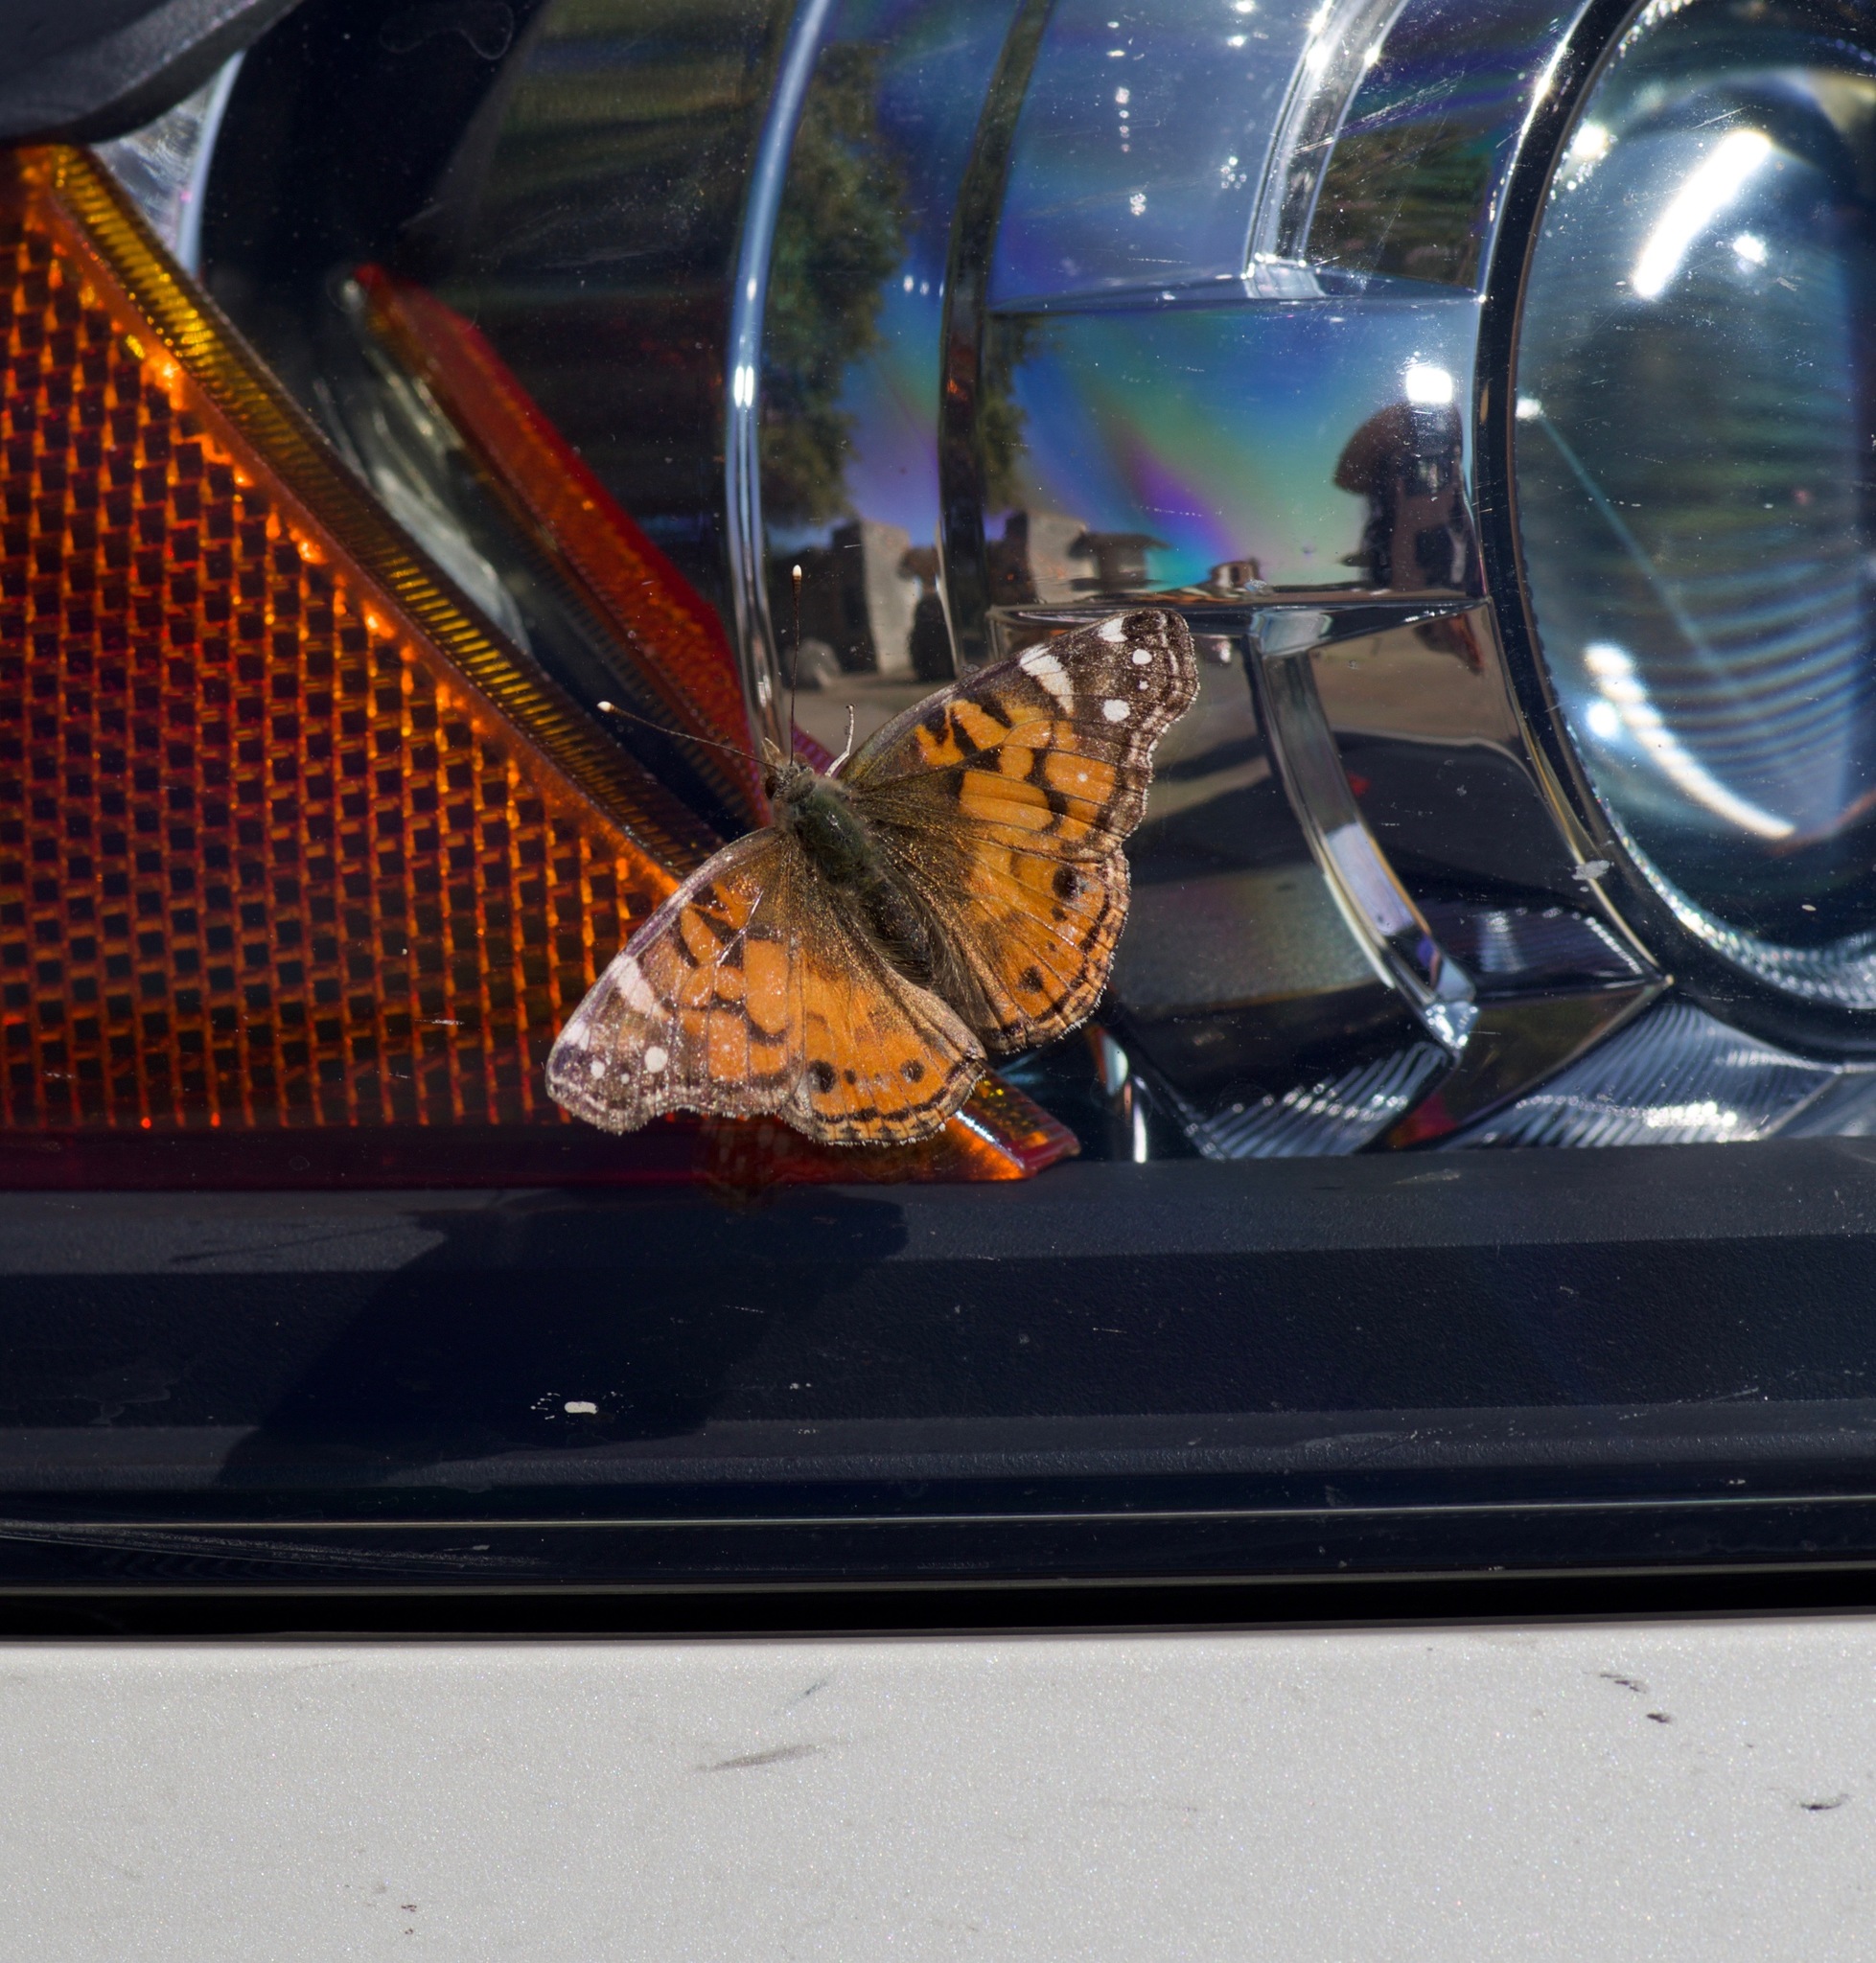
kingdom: Animalia
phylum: Arthropoda
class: Insecta
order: Lepidoptera
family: Nymphalidae
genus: Vanessa
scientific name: Vanessa virginiensis
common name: American lady
